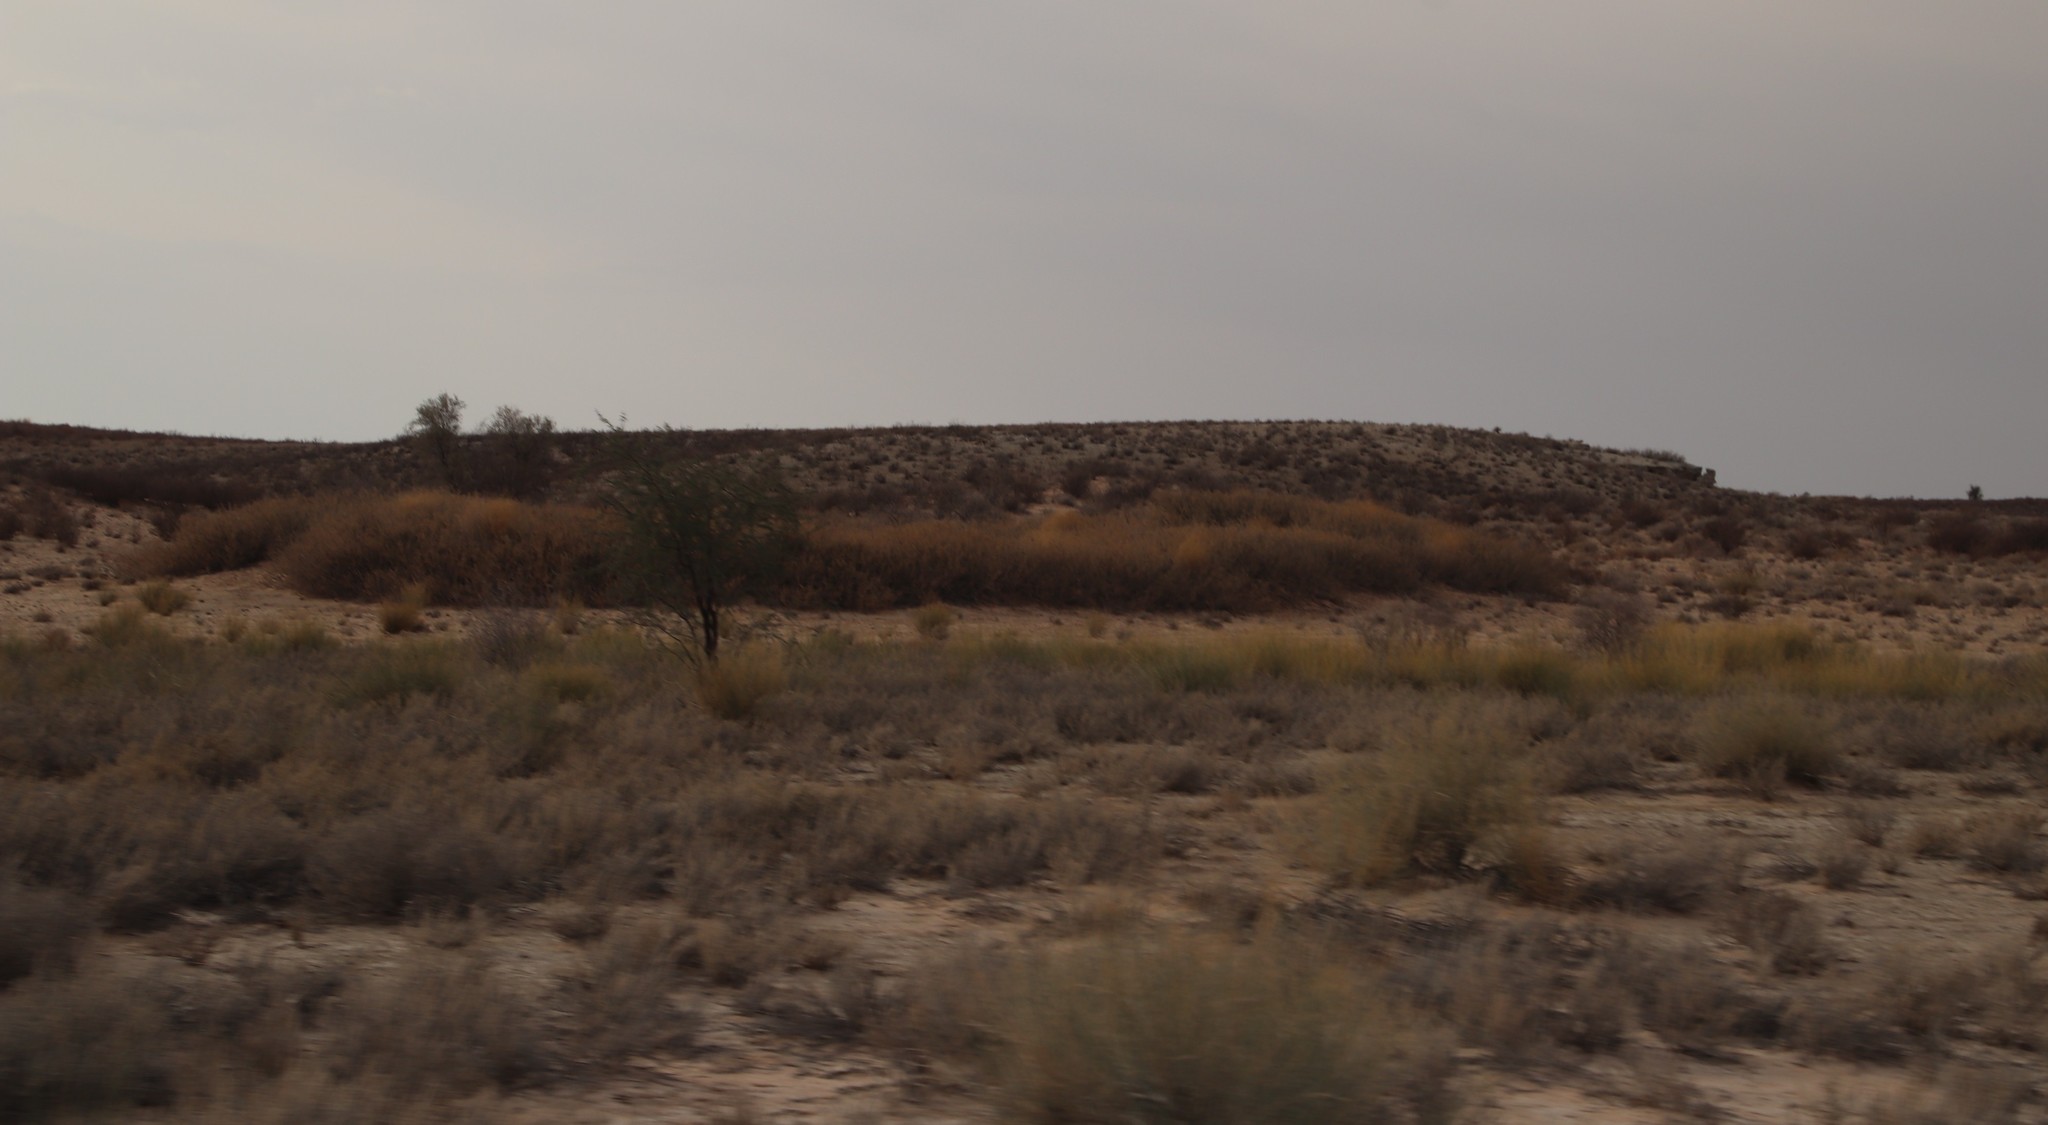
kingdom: Plantae
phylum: Tracheophyta
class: Magnoliopsida
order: Fabales
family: Fabaceae
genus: Vachellia
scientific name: Vachellia hebeclada
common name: Candle thorn
